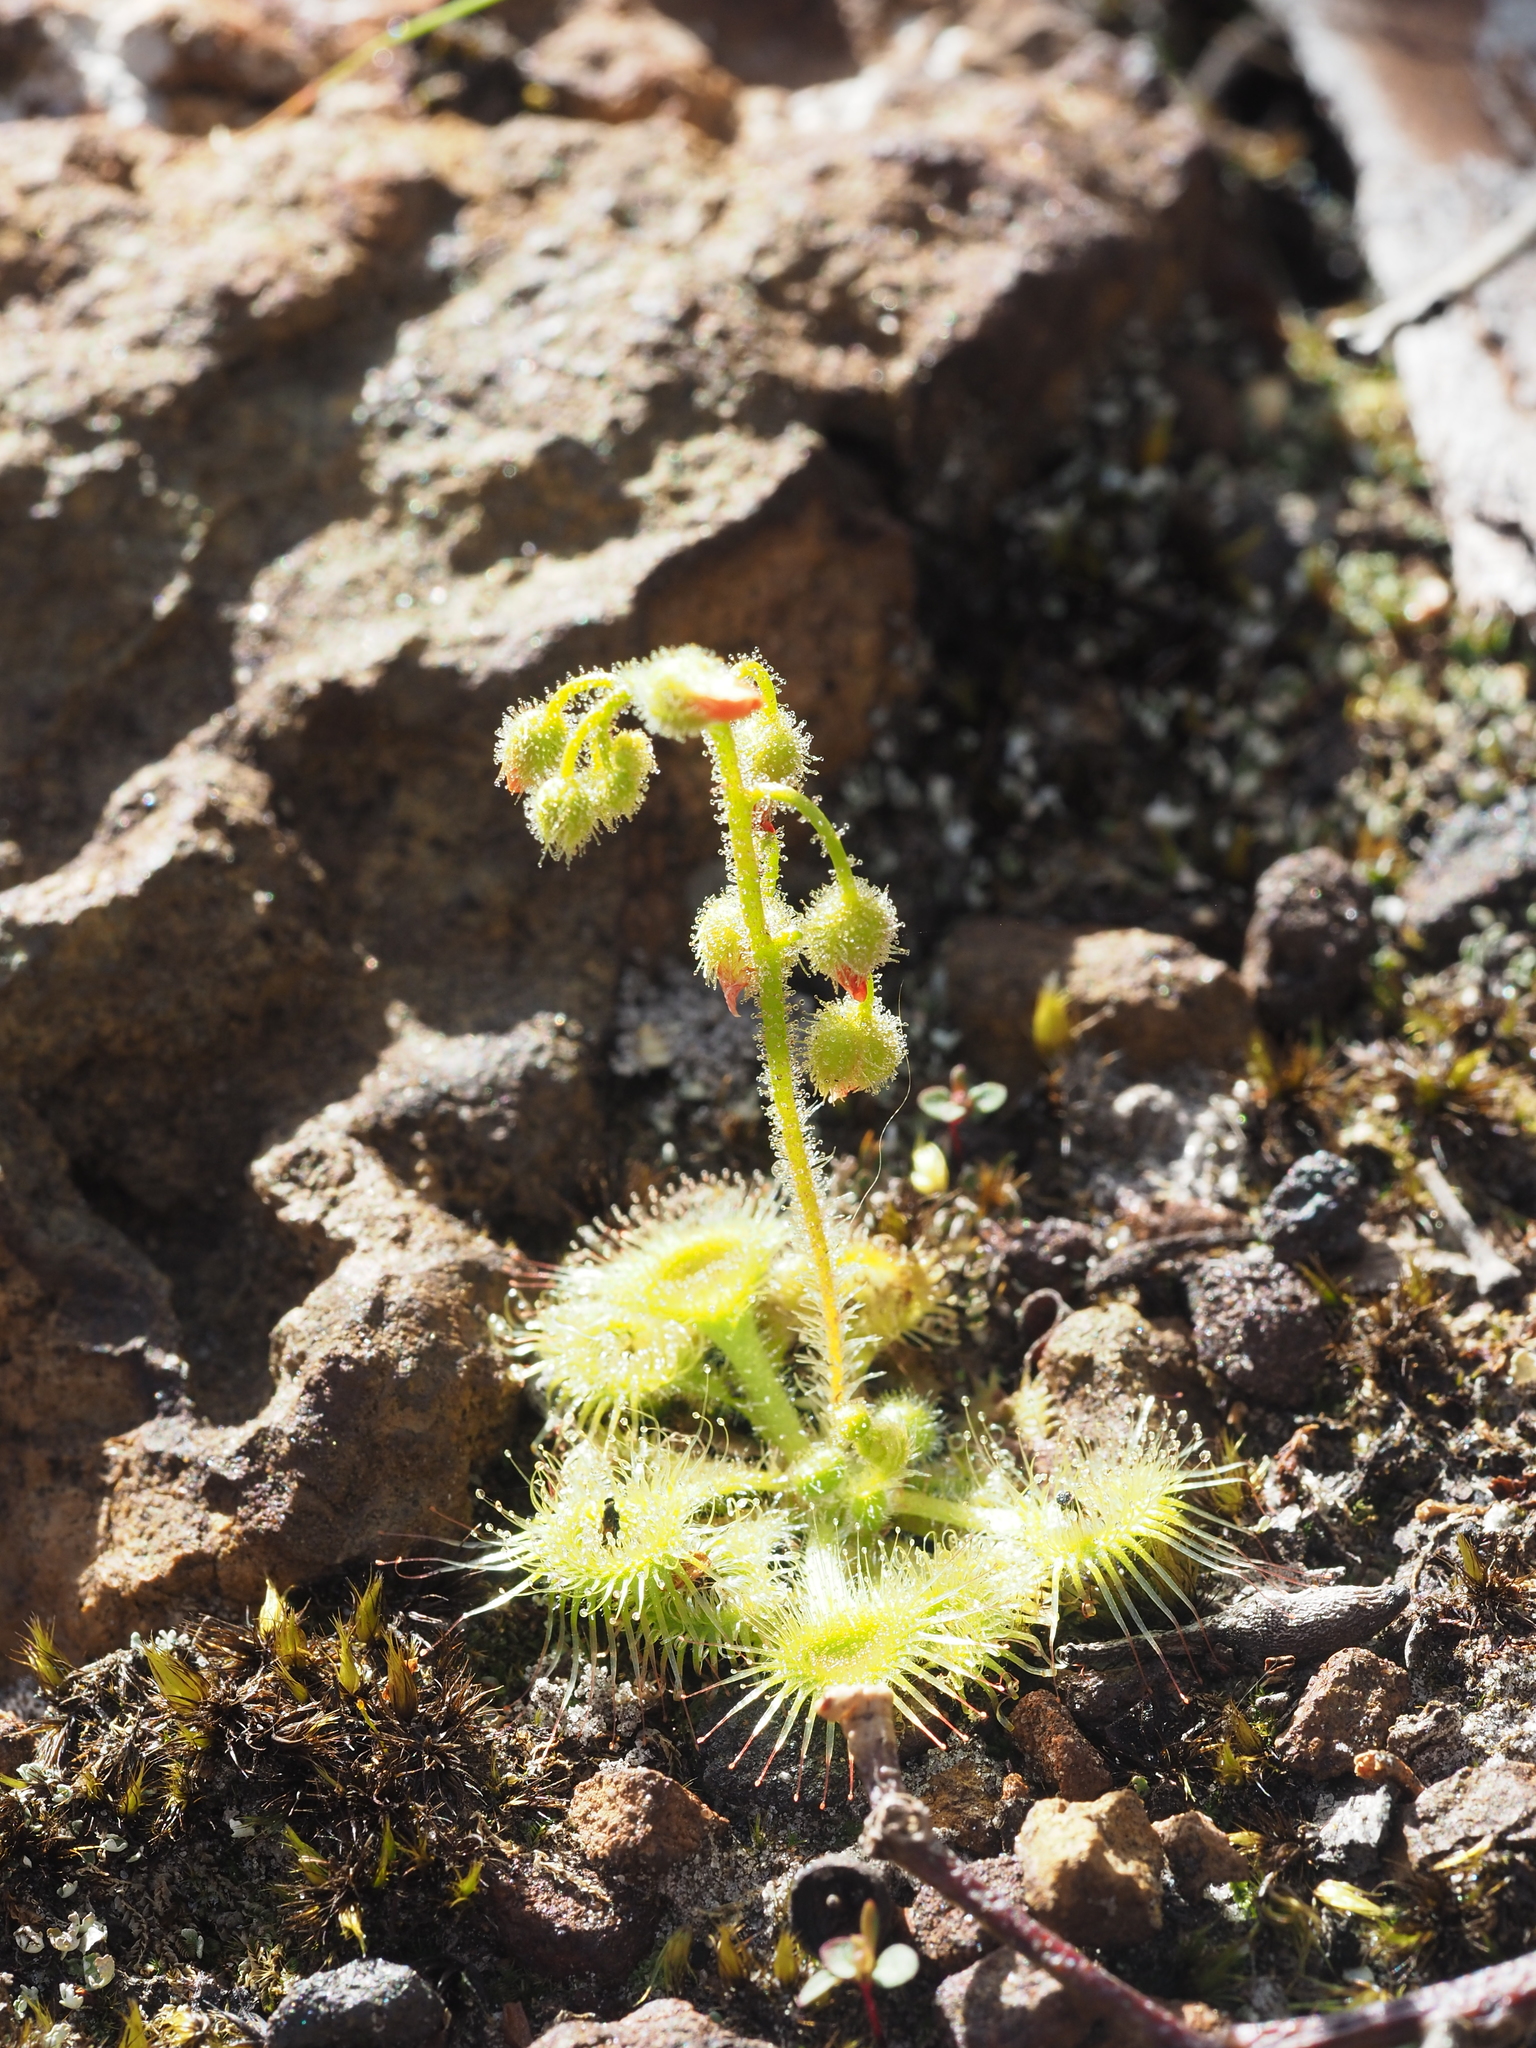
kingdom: Plantae
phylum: Tracheophyta
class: Magnoliopsida
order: Caryophyllales
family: Droseraceae
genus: Drosera
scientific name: Drosera glanduligera
